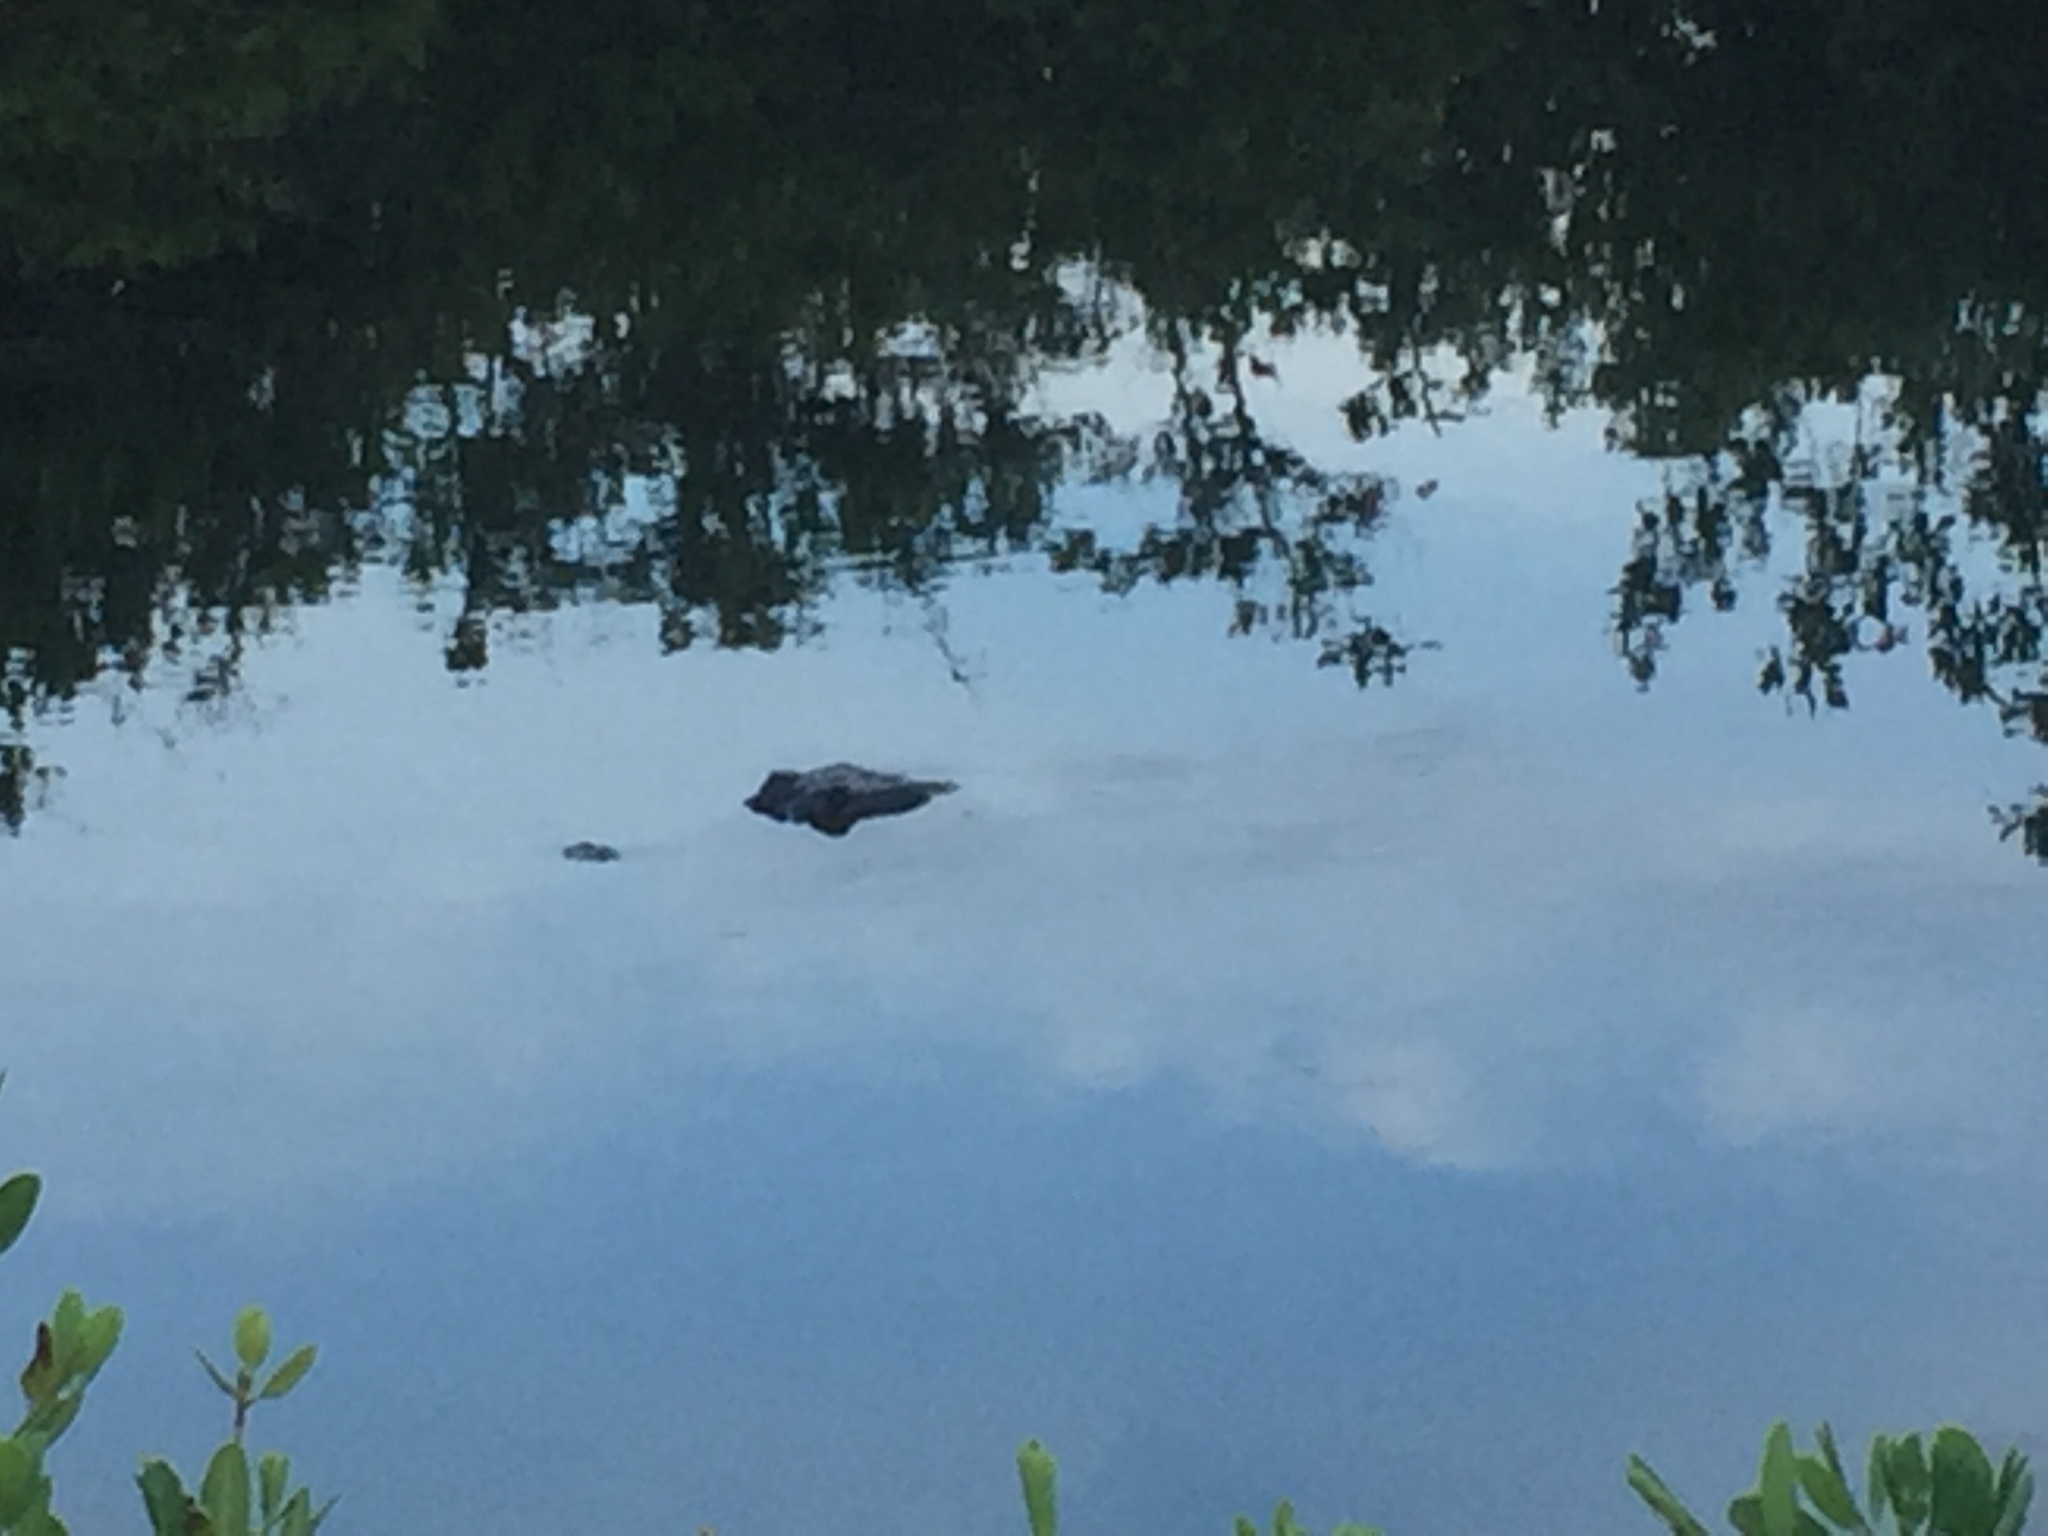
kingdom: Animalia
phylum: Chordata
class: Crocodylia
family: Alligatoridae
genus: Alligator
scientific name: Alligator mississippiensis
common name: American alligator
